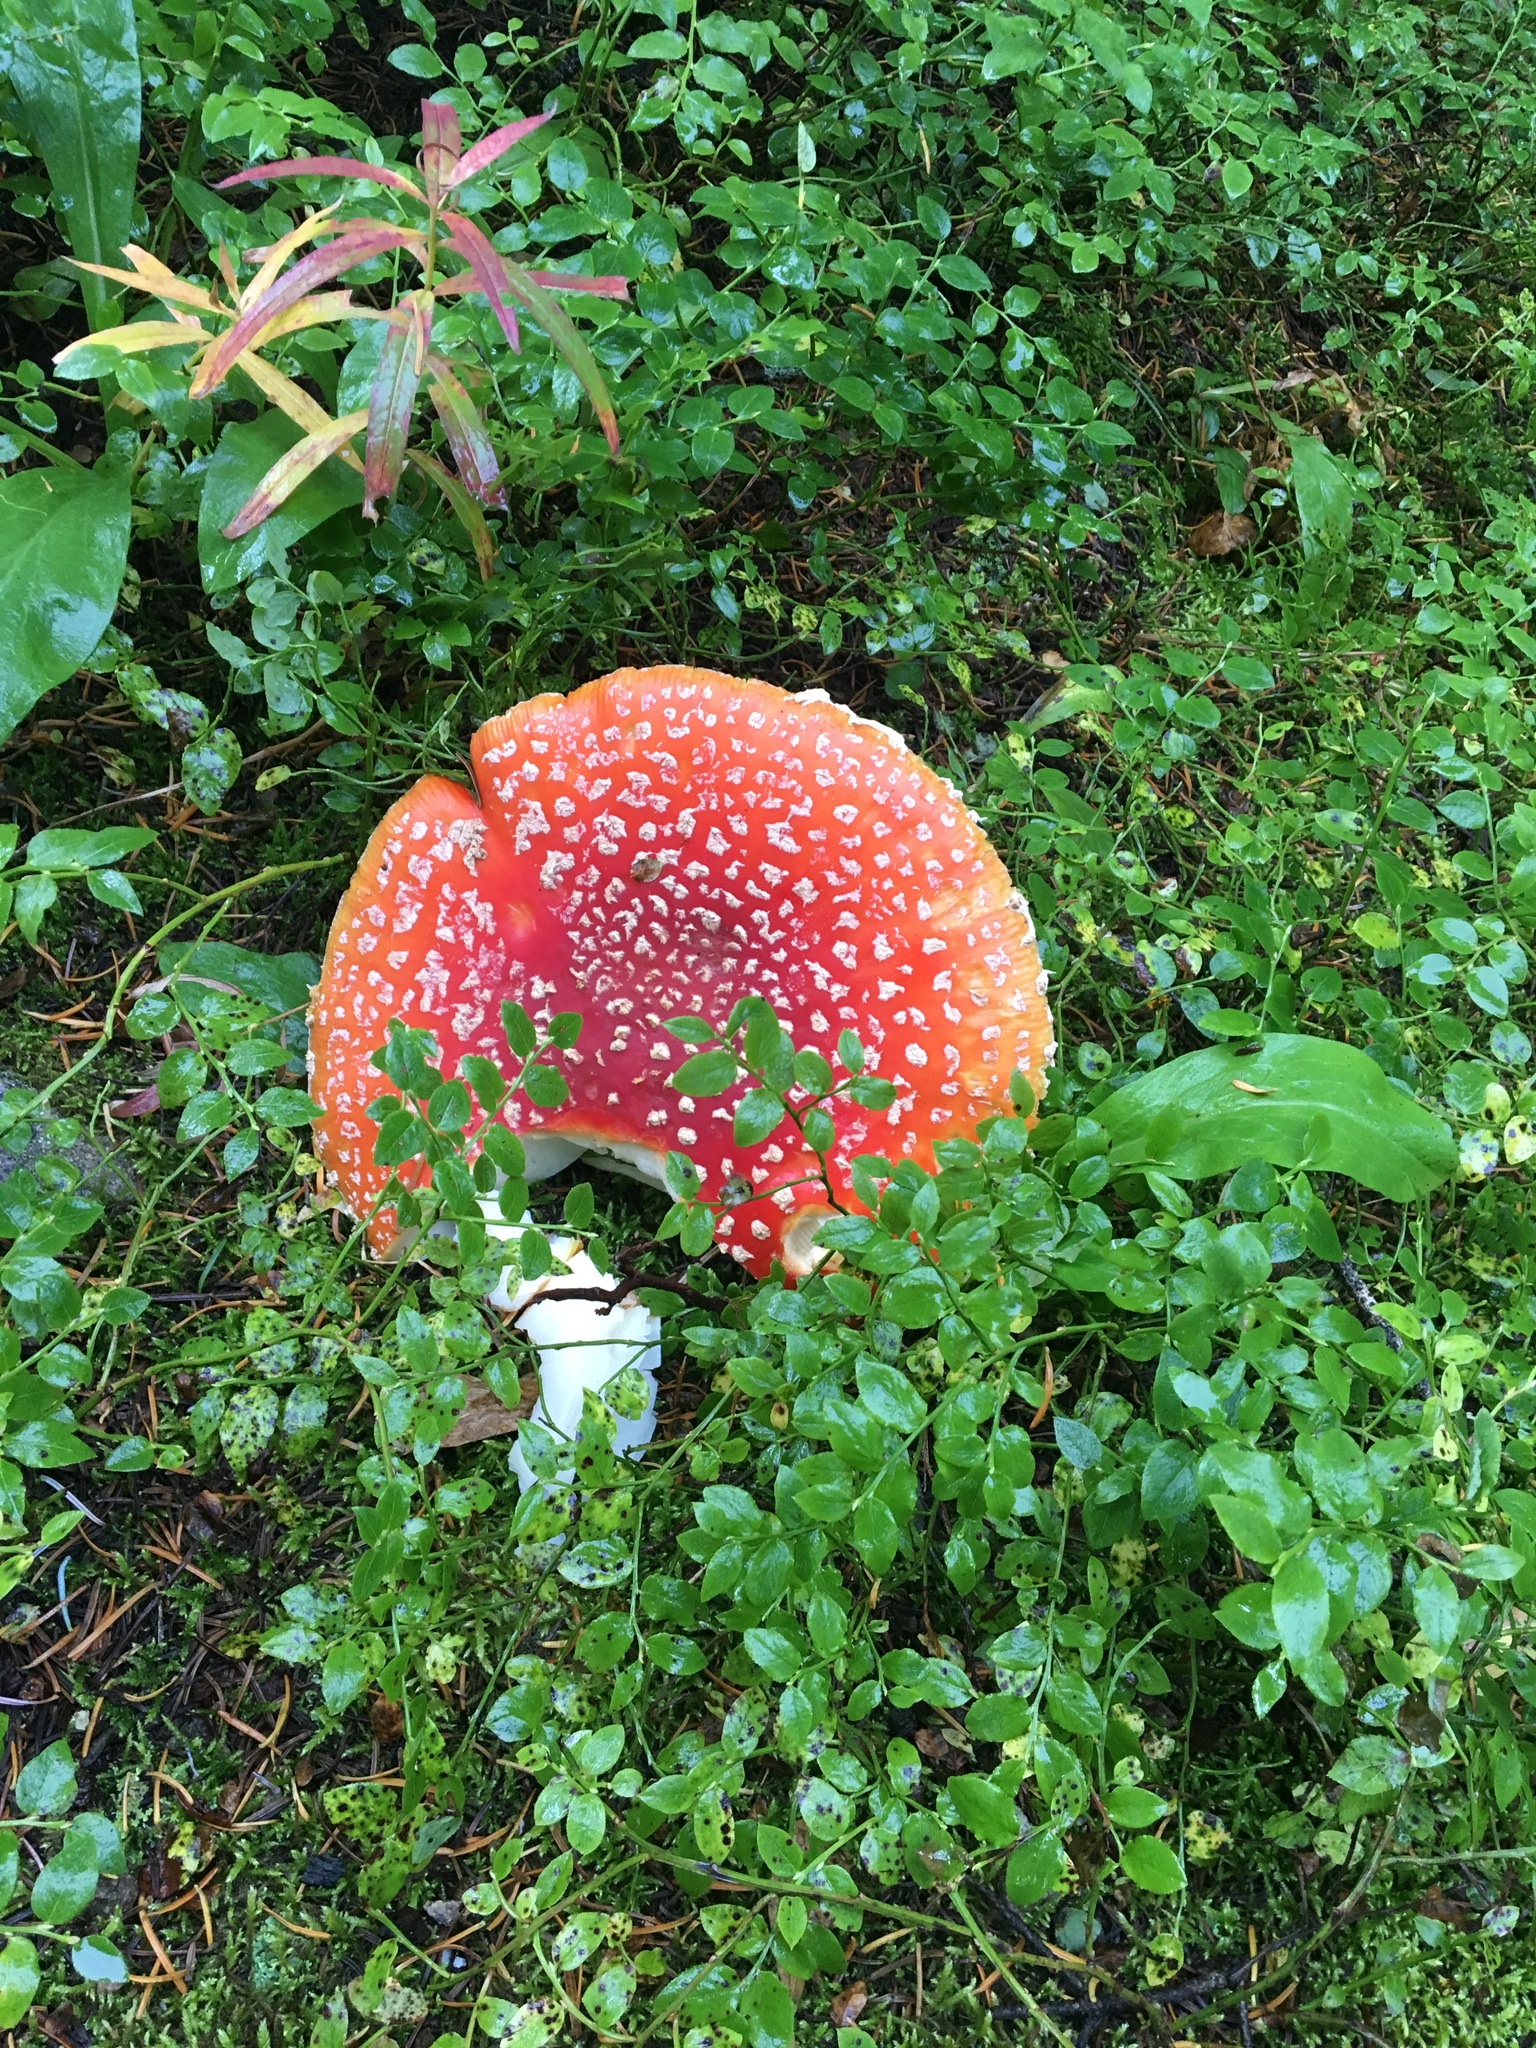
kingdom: Fungi
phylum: Basidiomycota
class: Agaricomycetes
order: Agaricales
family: Amanitaceae
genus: Amanita
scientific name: Amanita muscaria
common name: Fly agaric
